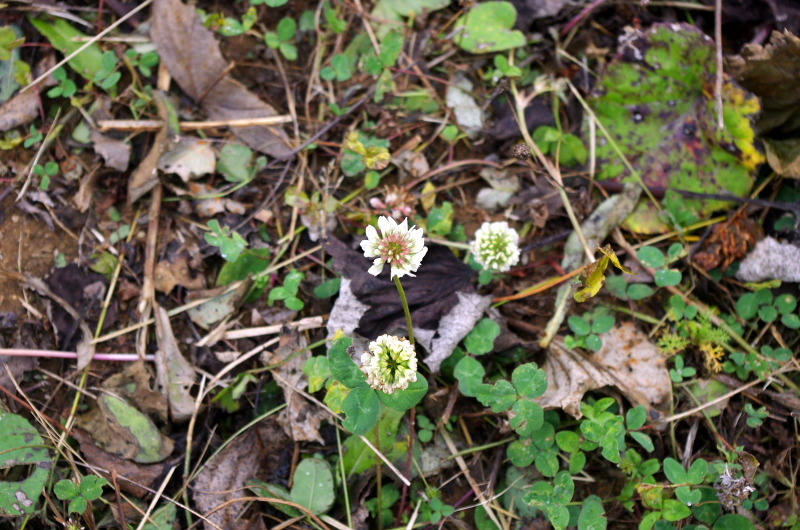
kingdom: Plantae
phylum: Tracheophyta
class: Magnoliopsida
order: Fabales
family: Fabaceae
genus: Trifolium
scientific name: Trifolium repens
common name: White clover
